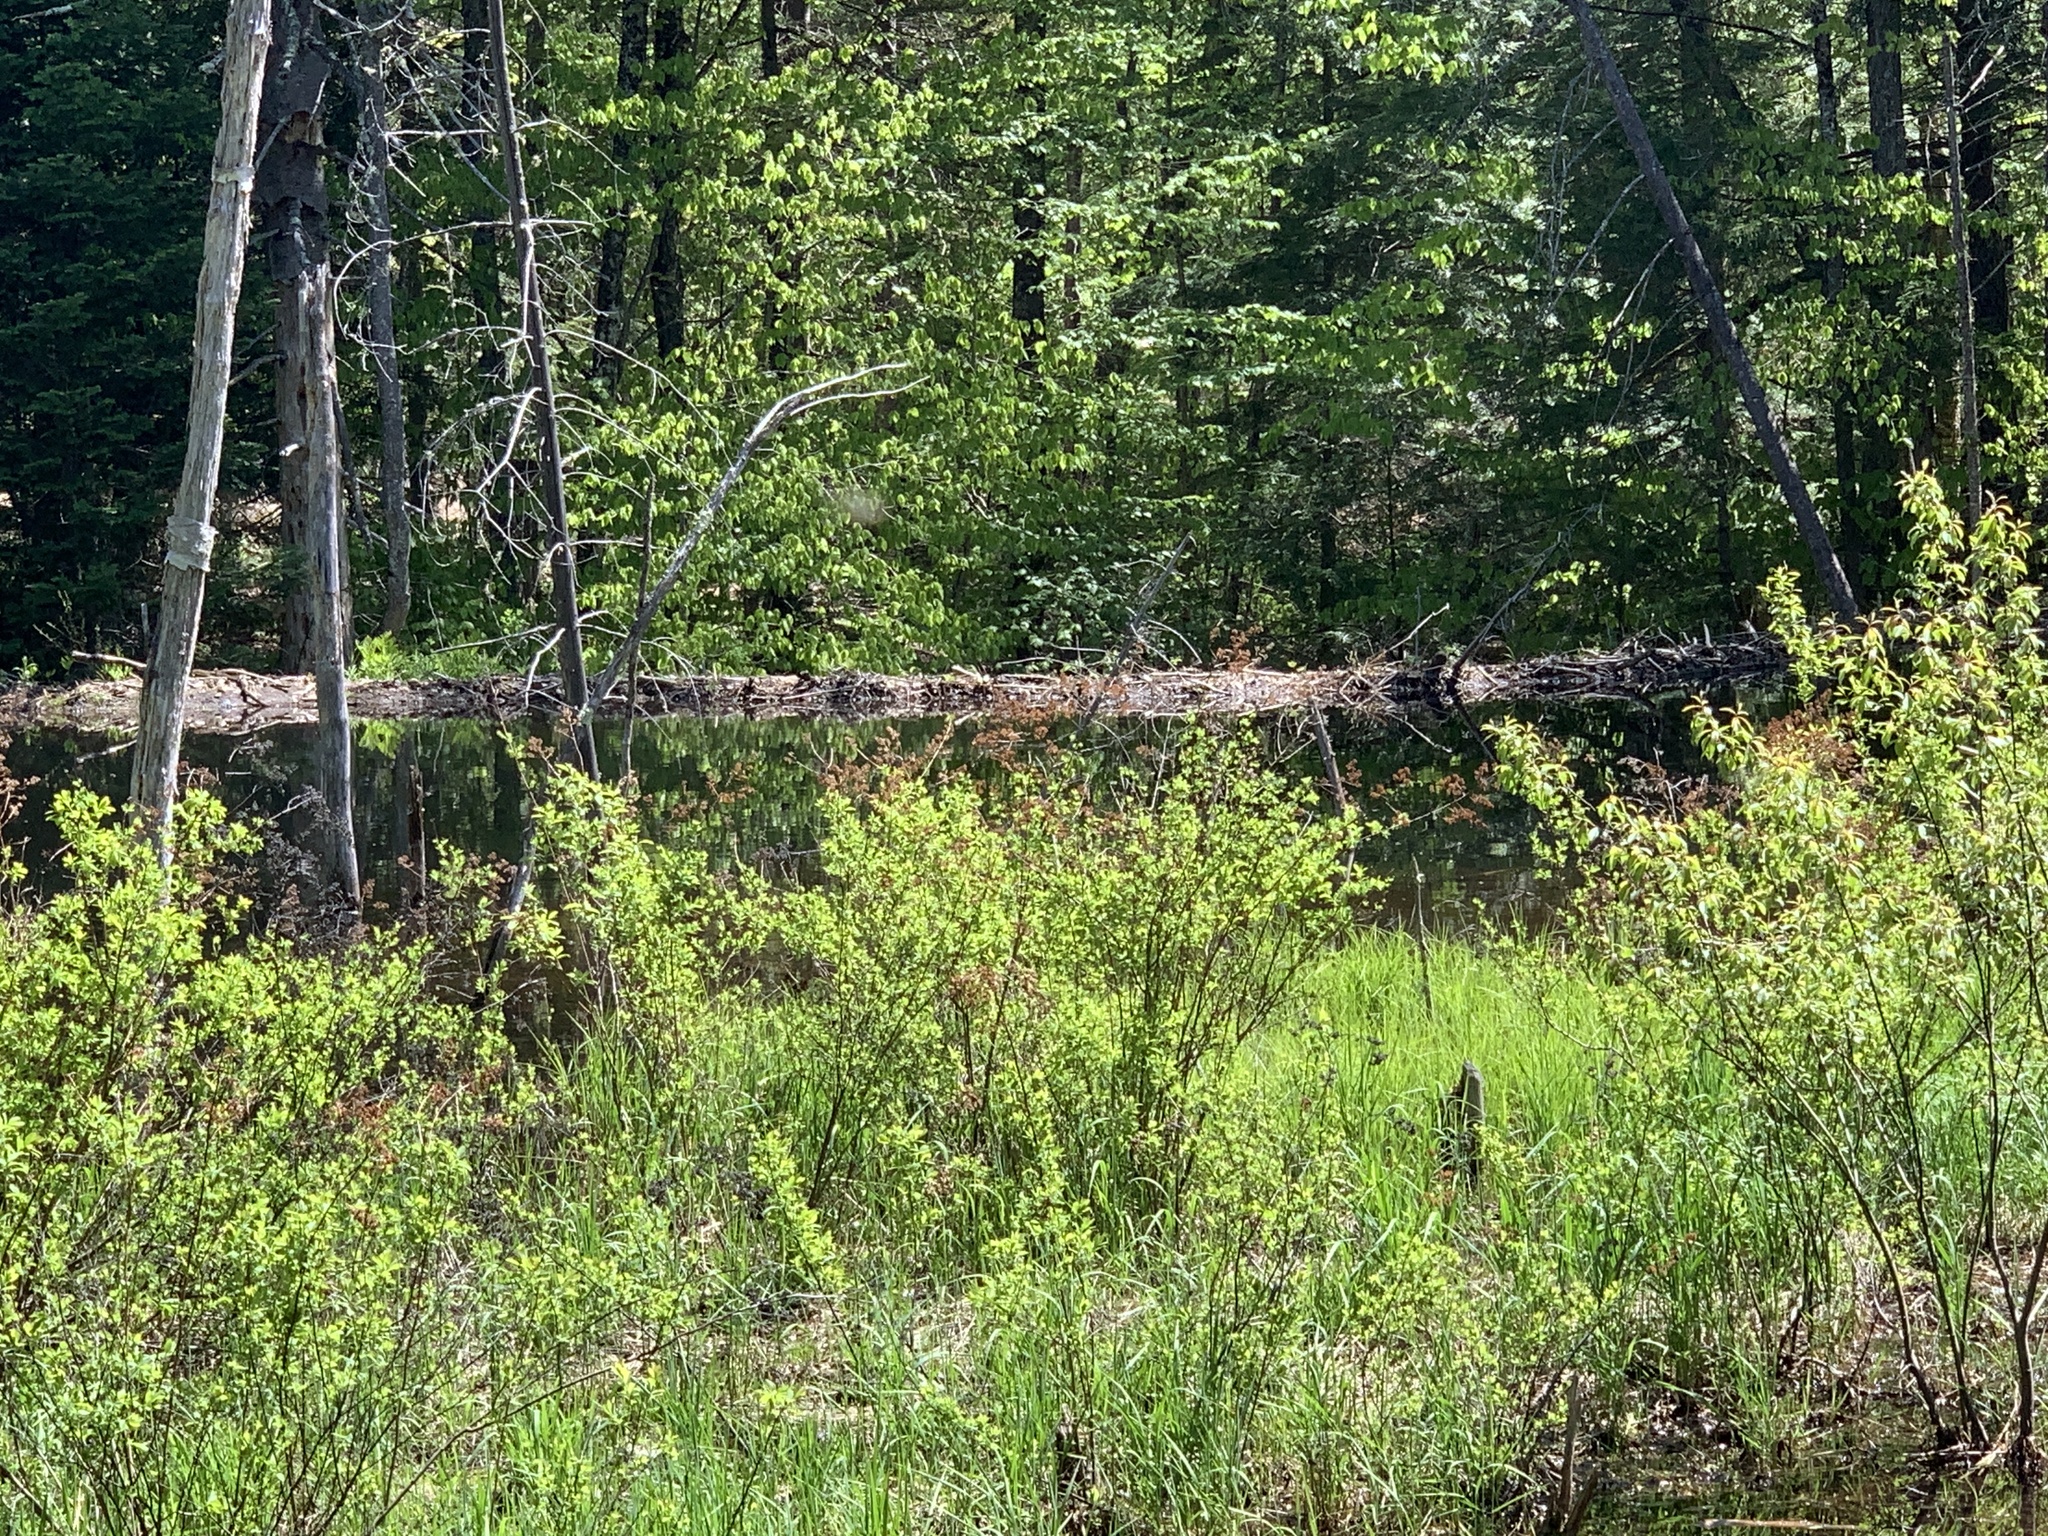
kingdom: Animalia
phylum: Chordata
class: Mammalia
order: Rodentia
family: Castoridae
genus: Castor
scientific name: Castor canadensis
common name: American beaver
